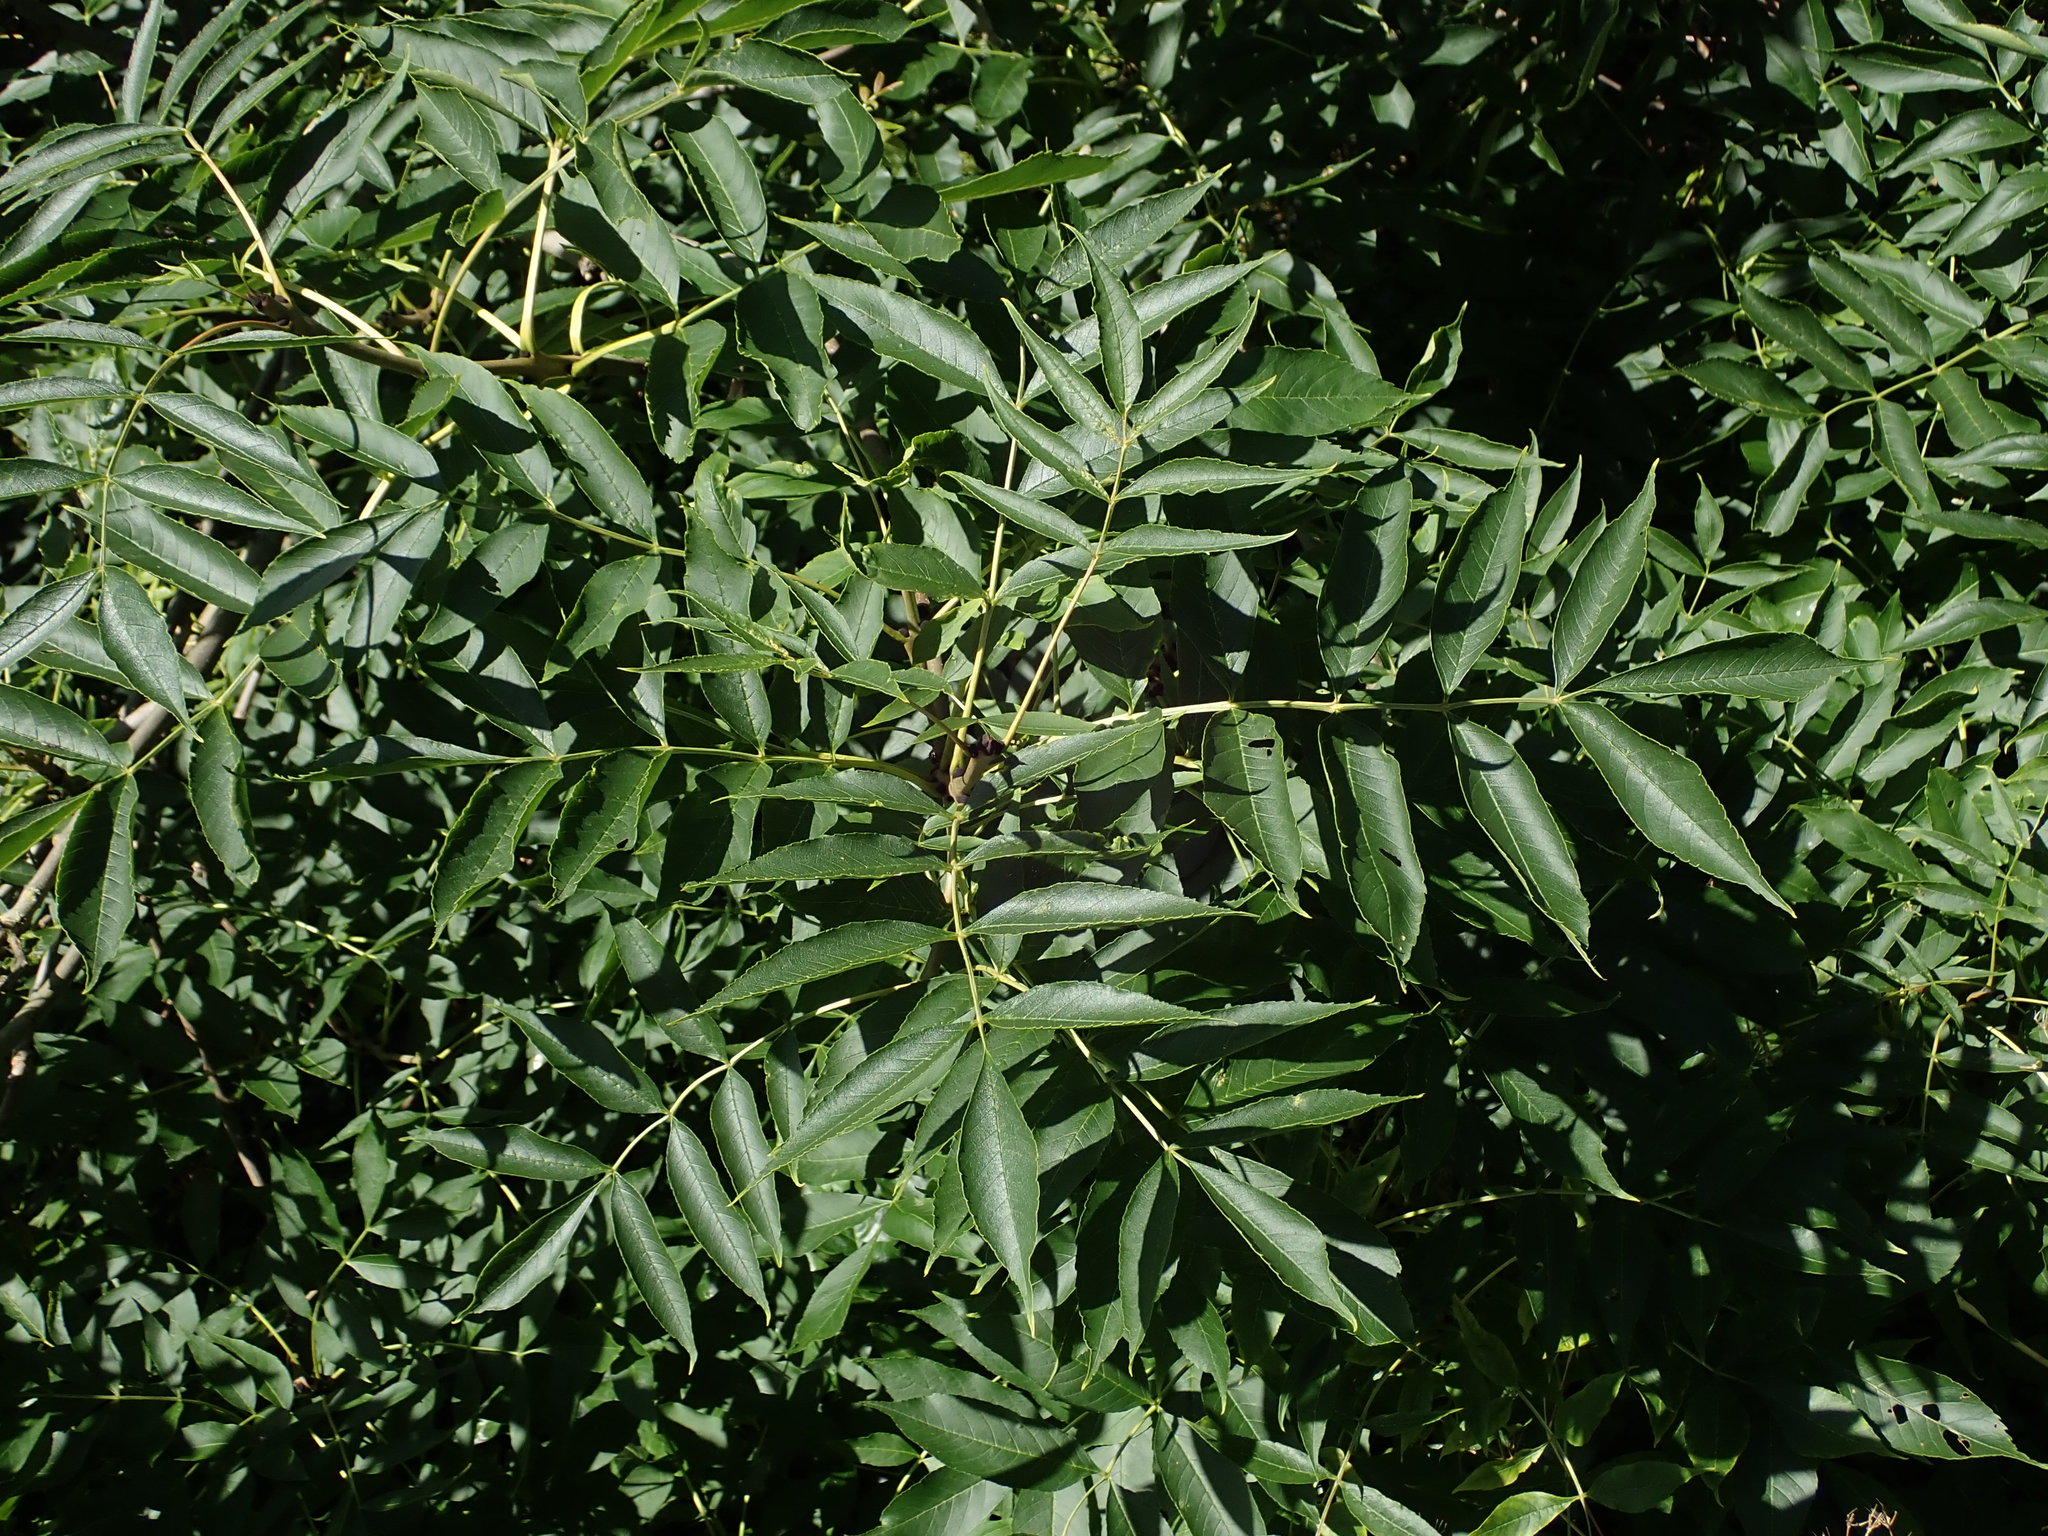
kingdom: Plantae
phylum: Tracheophyta
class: Magnoliopsida
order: Lamiales
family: Oleaceae
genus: Fraxinus
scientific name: Fraxinus excelsior
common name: European ash
